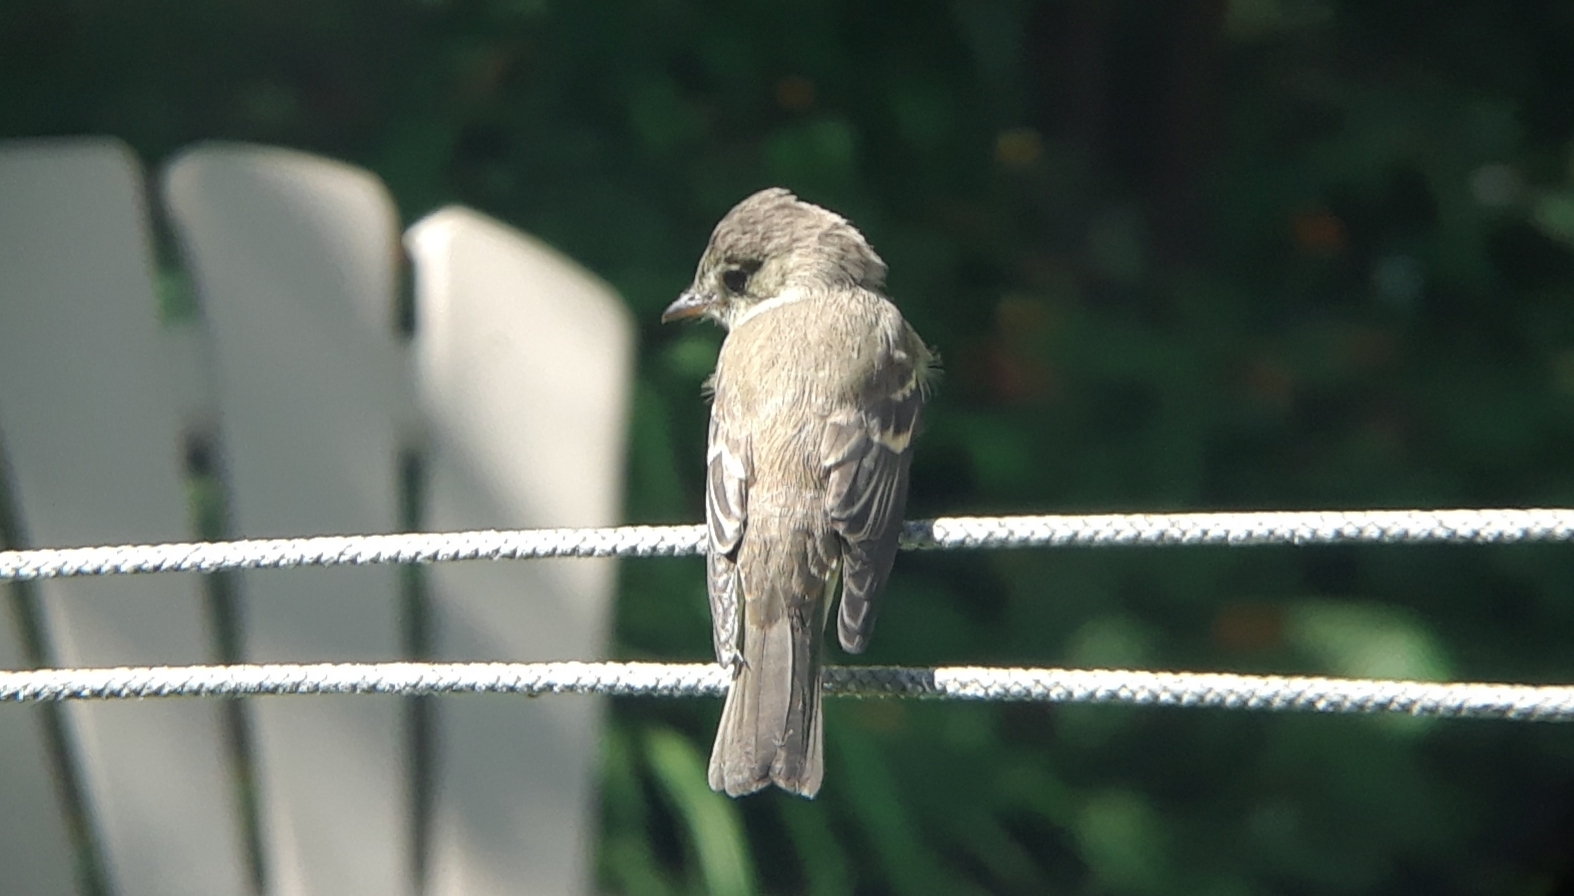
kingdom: Animalia
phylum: Chordata
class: Aves
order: Passeriformes
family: Tyrannidae
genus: Contopus
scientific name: Contopus virens
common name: Eastern wood-pewee
